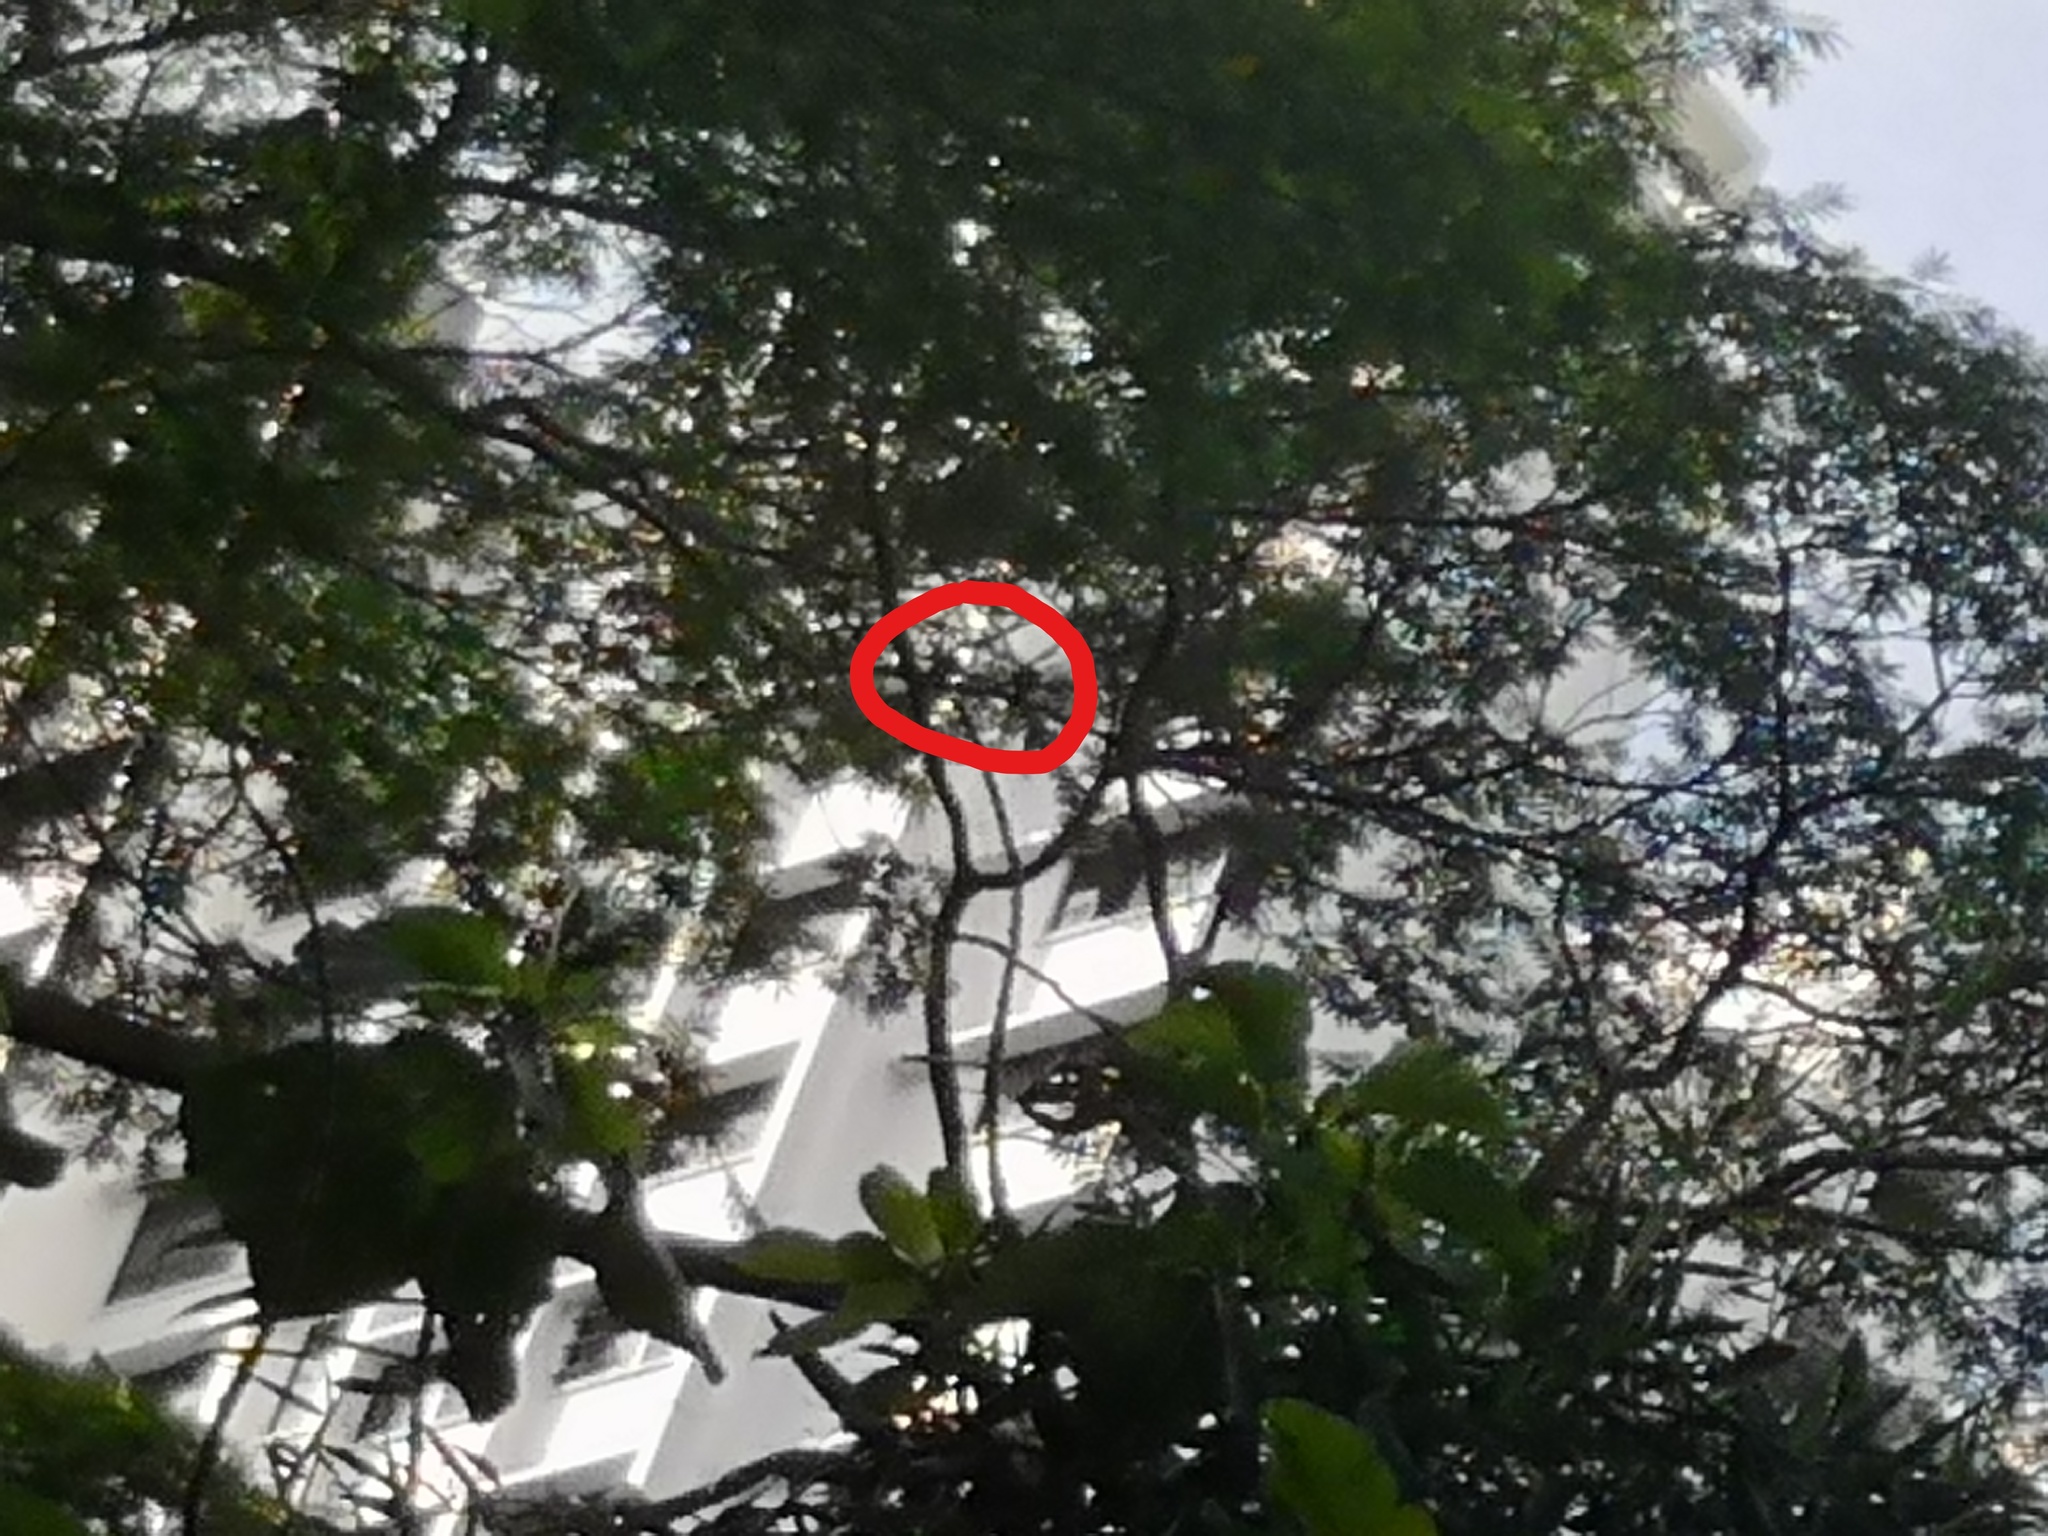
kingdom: Animalia
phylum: Chordata
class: Aves
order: Coraciiformes
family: Coraciidae
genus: Eurystomus
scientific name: Eurystomus orientalis
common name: Oriental dollarbird
